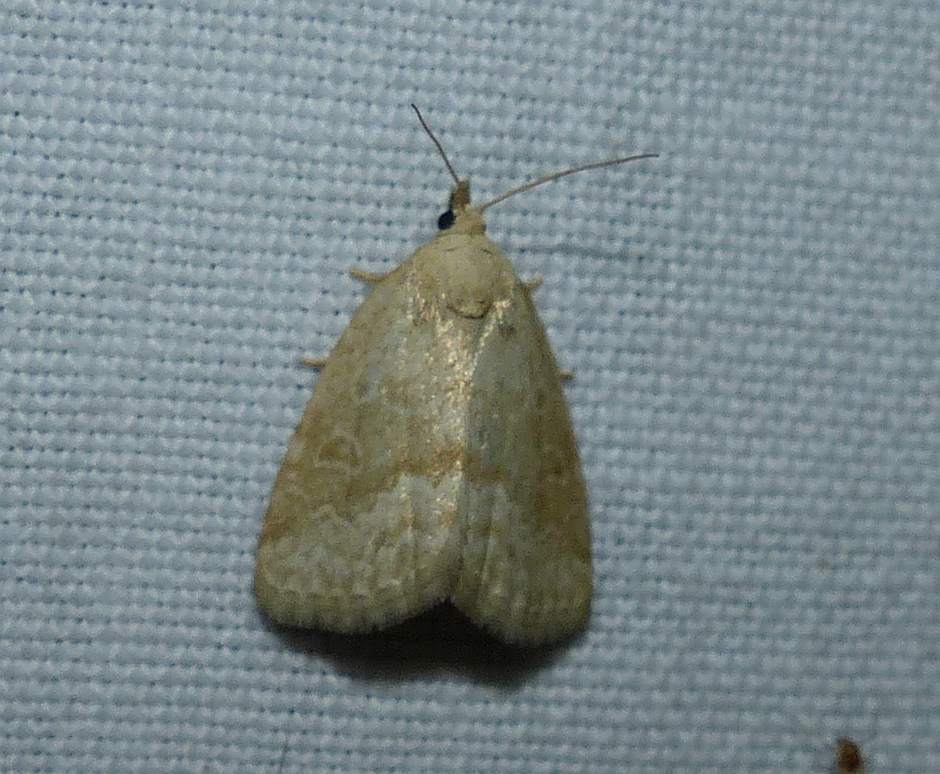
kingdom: Animalia
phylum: Arthropoda
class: Insecta
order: Lepidoptera
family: Noctuidae
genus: Protodeltote
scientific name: Protodeltote albidula
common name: Pale glyph
